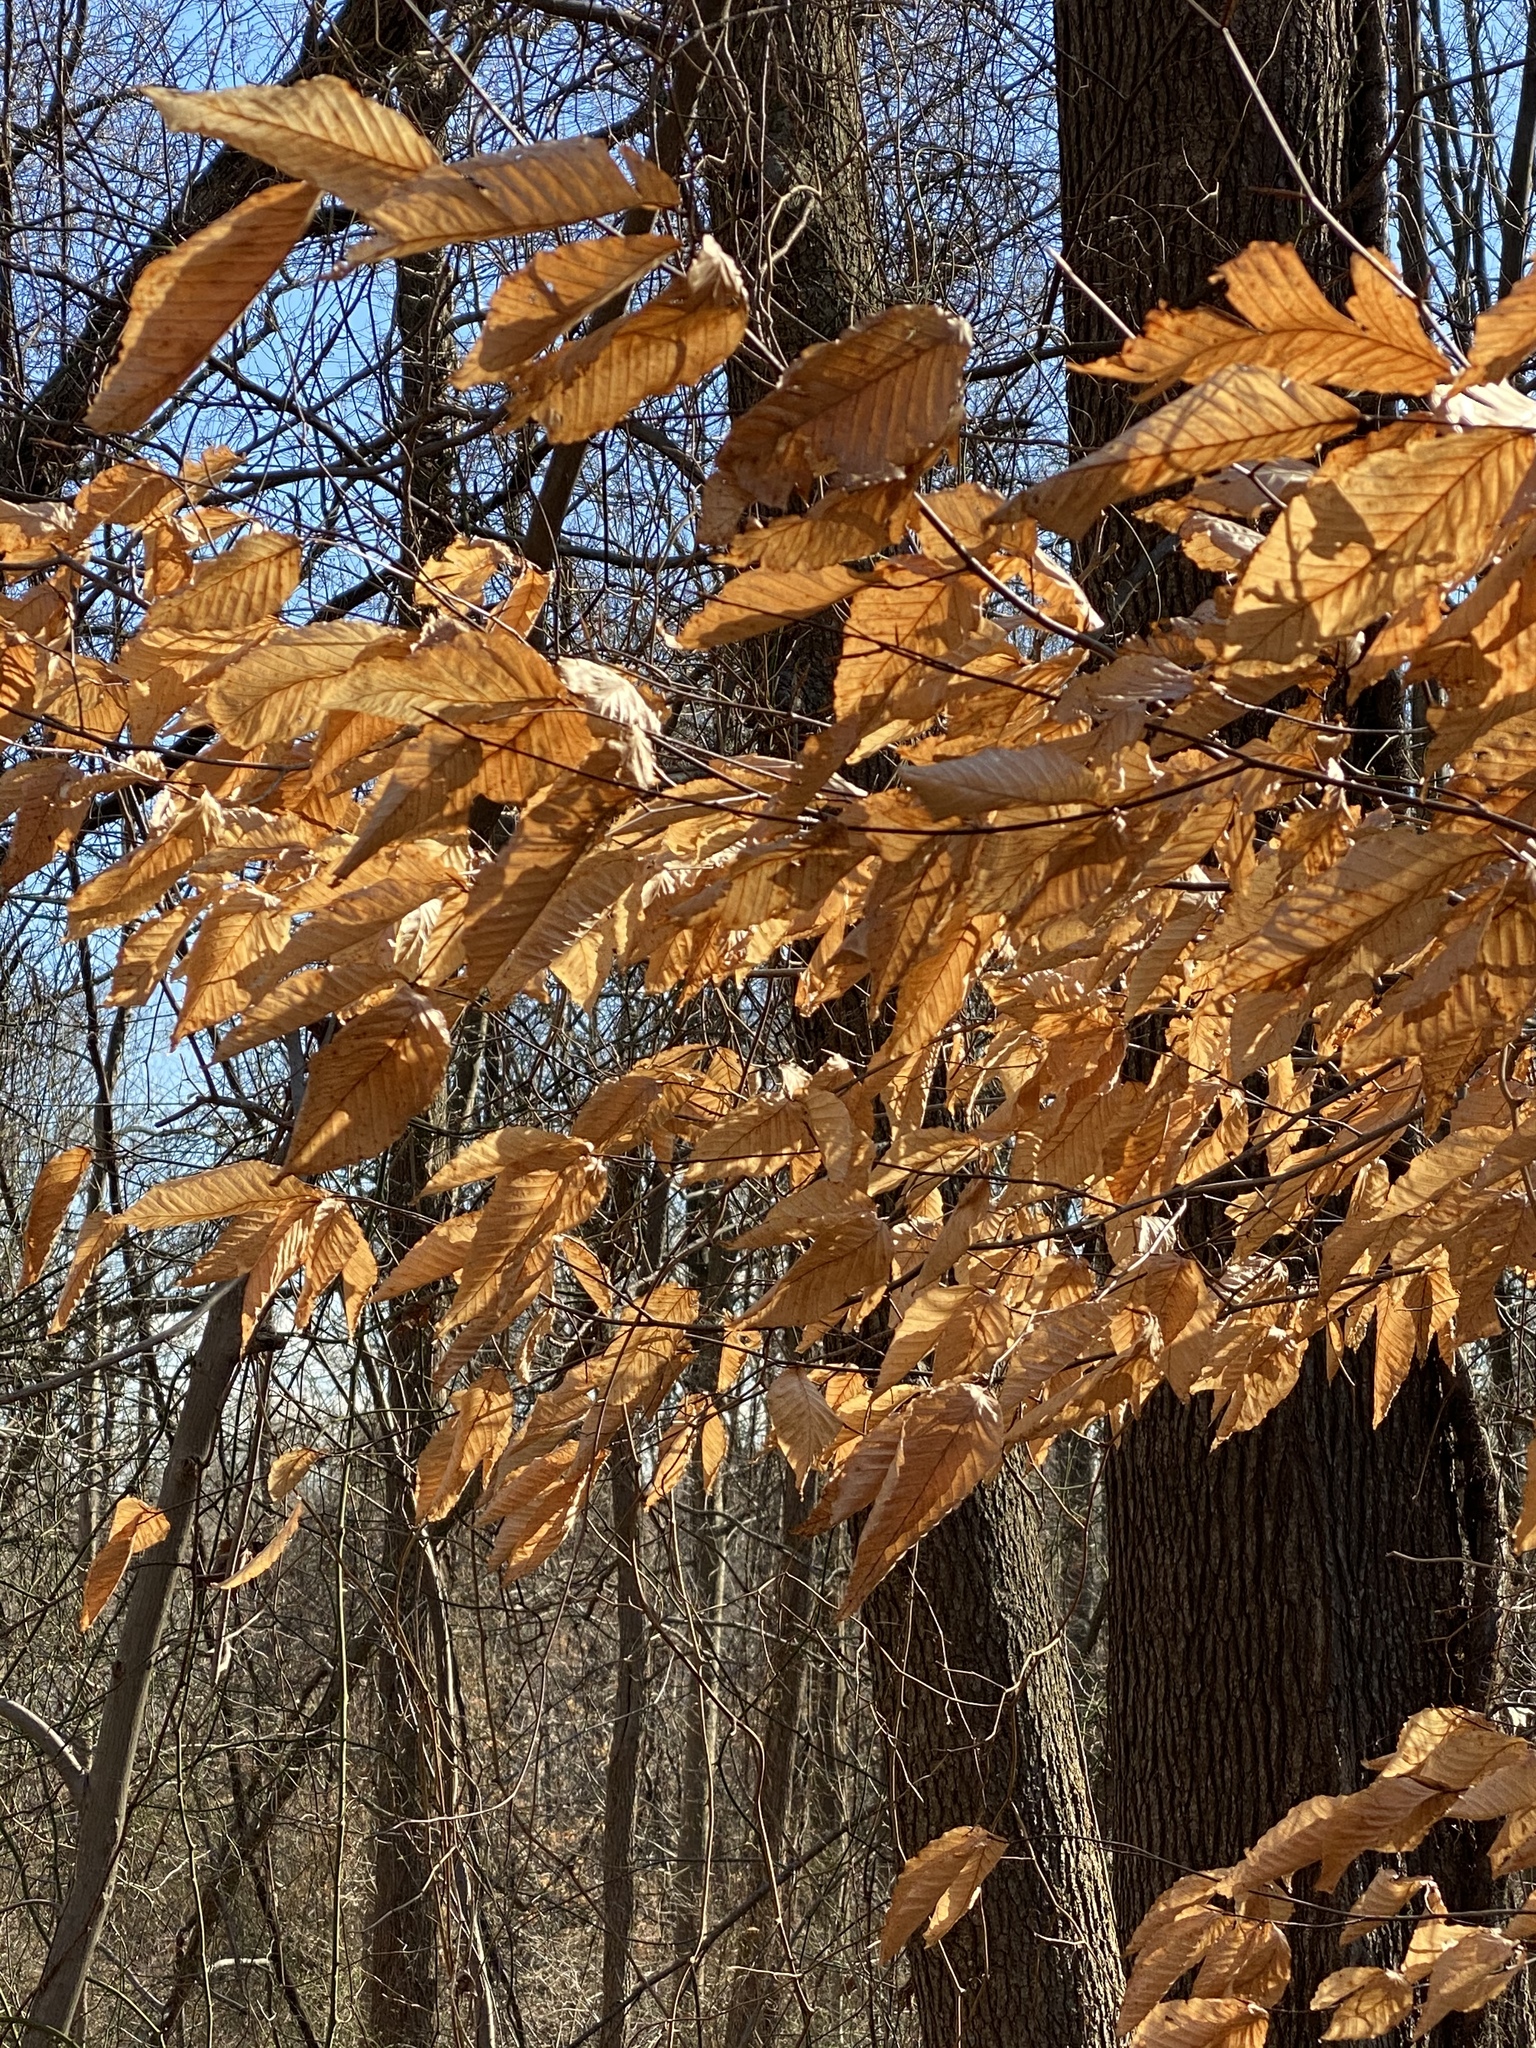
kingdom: Plantae
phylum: Tracheophyta
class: Magnoliopsida
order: Fagales
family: Fagaceae
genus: Fagus
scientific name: Fagus grandifolia
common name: American beech
